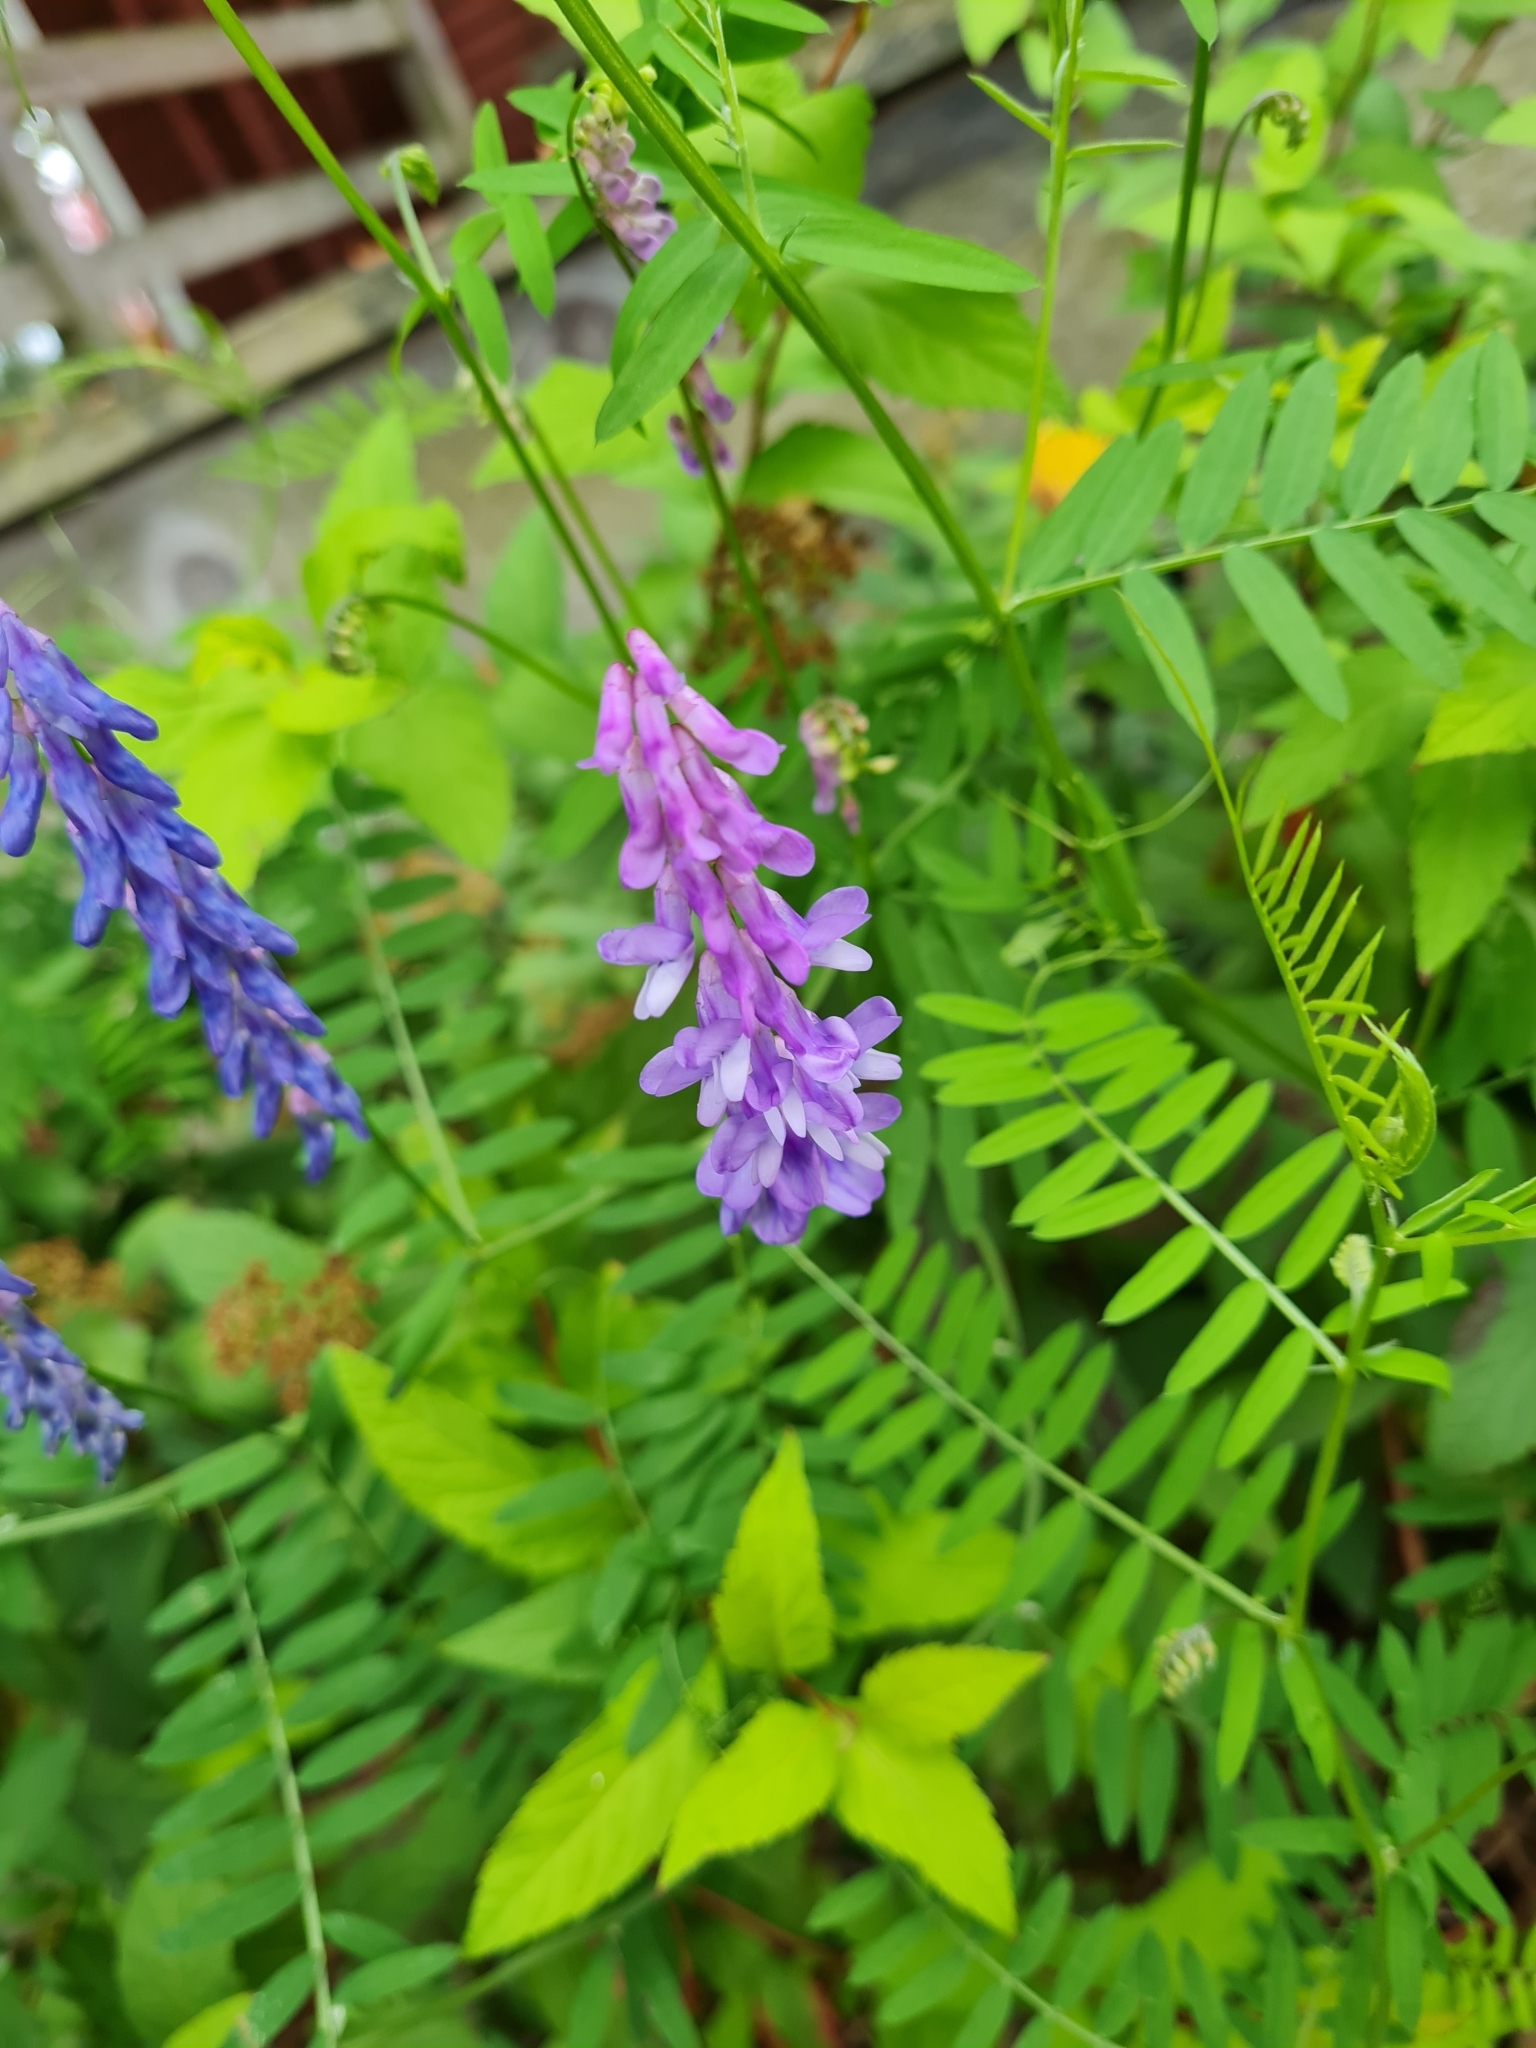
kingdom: Plantae
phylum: Tracheophyta
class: Magnoliopsida
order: Fabales
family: Fabaceae
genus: Vicia
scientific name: Vicia cracca
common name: Bird vetch
